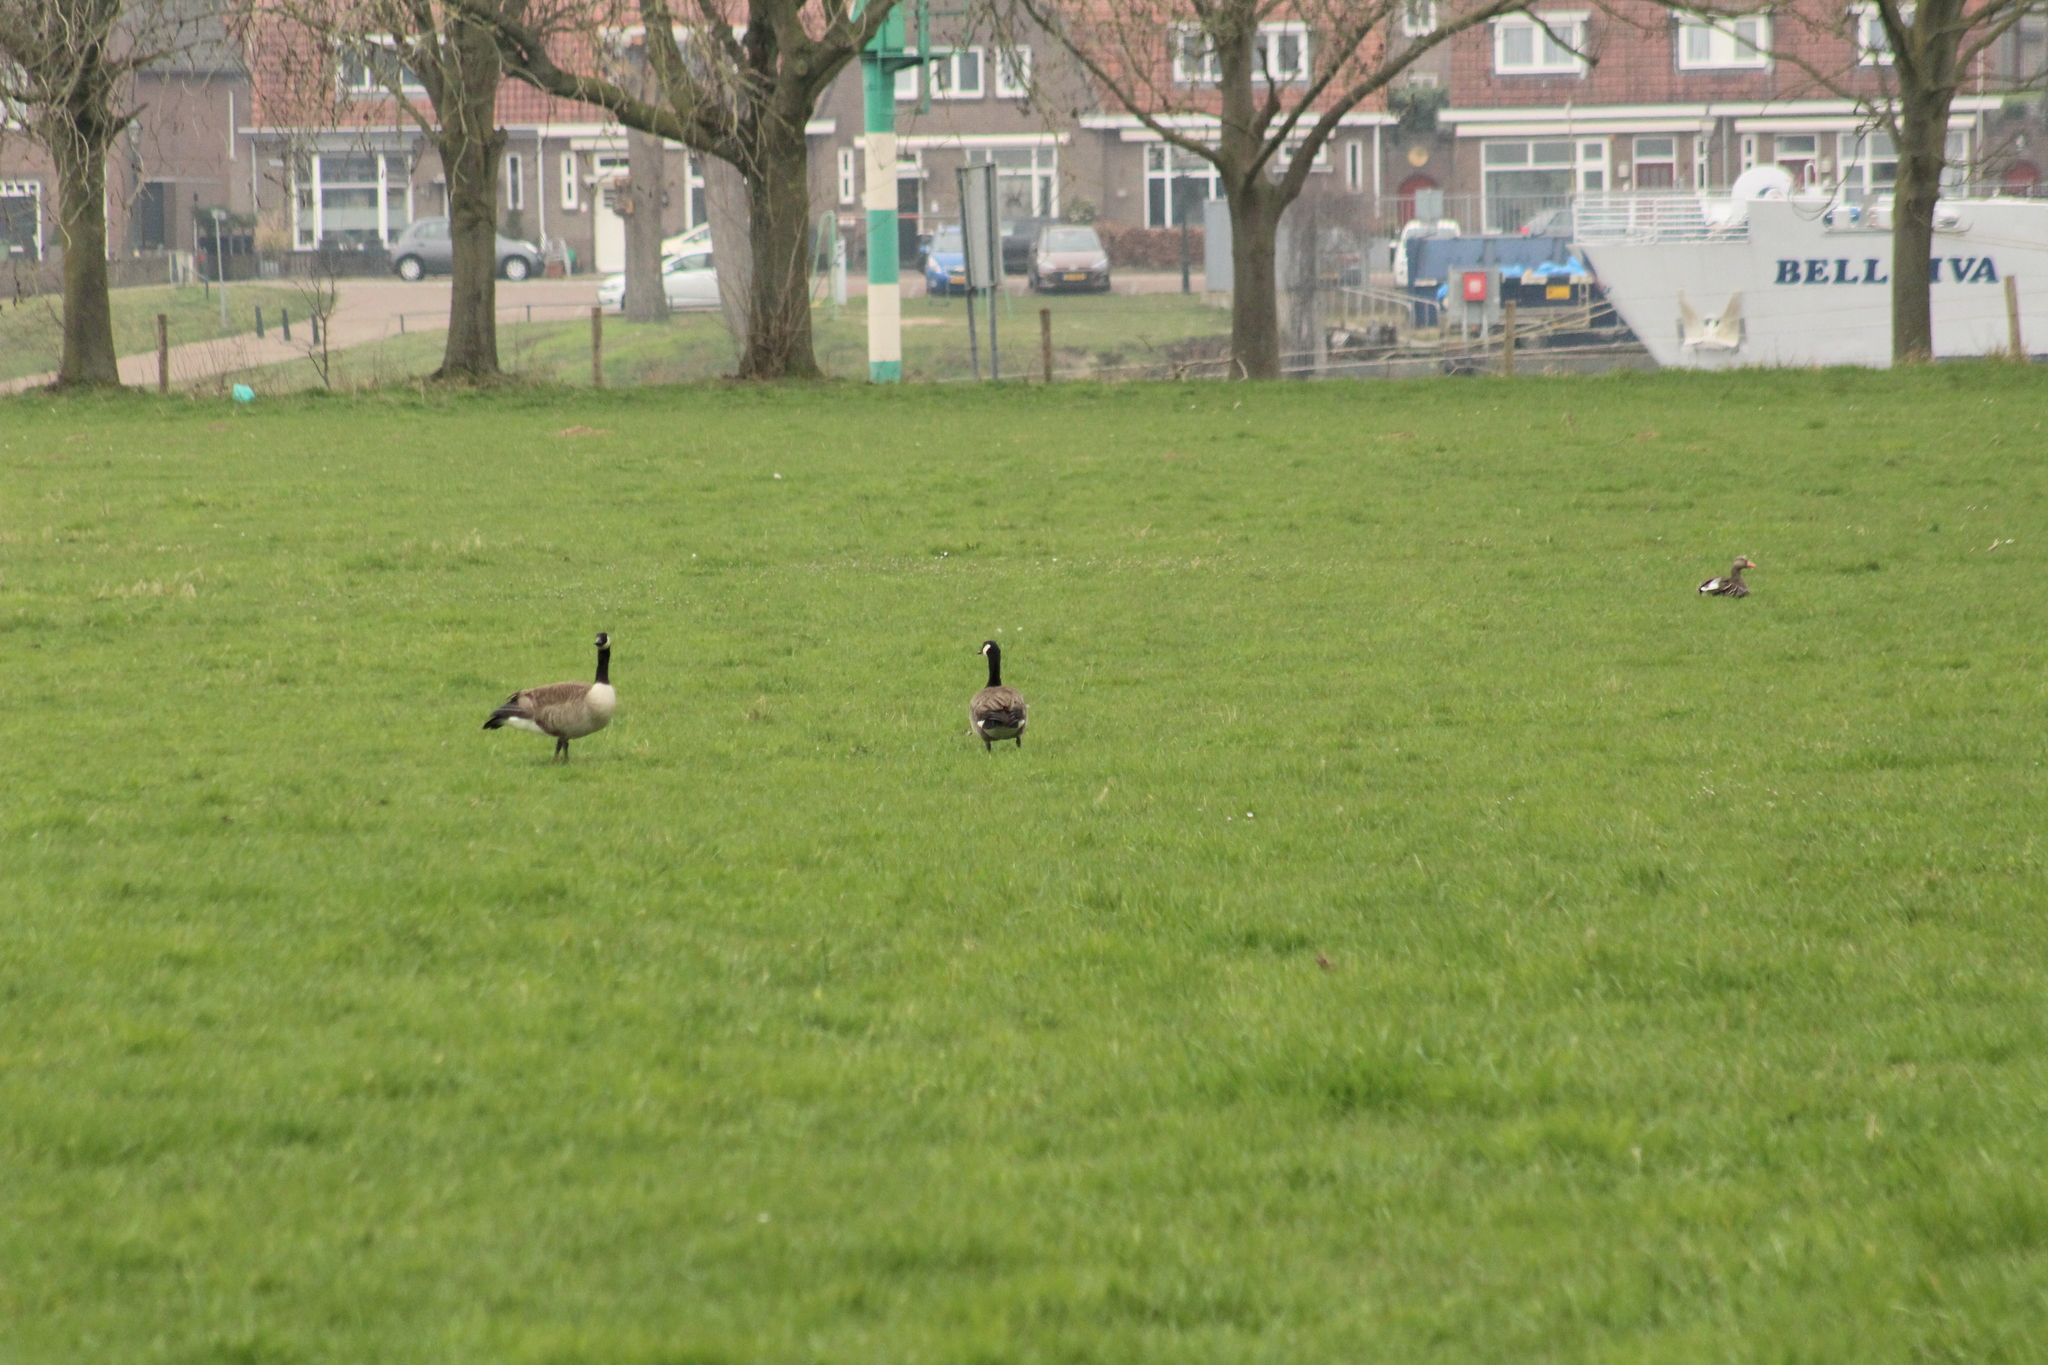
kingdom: Animalia
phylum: Chordata
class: Aves
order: Anseriformes
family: Anatidae
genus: Anser
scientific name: Anser anser
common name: Greylag goose
